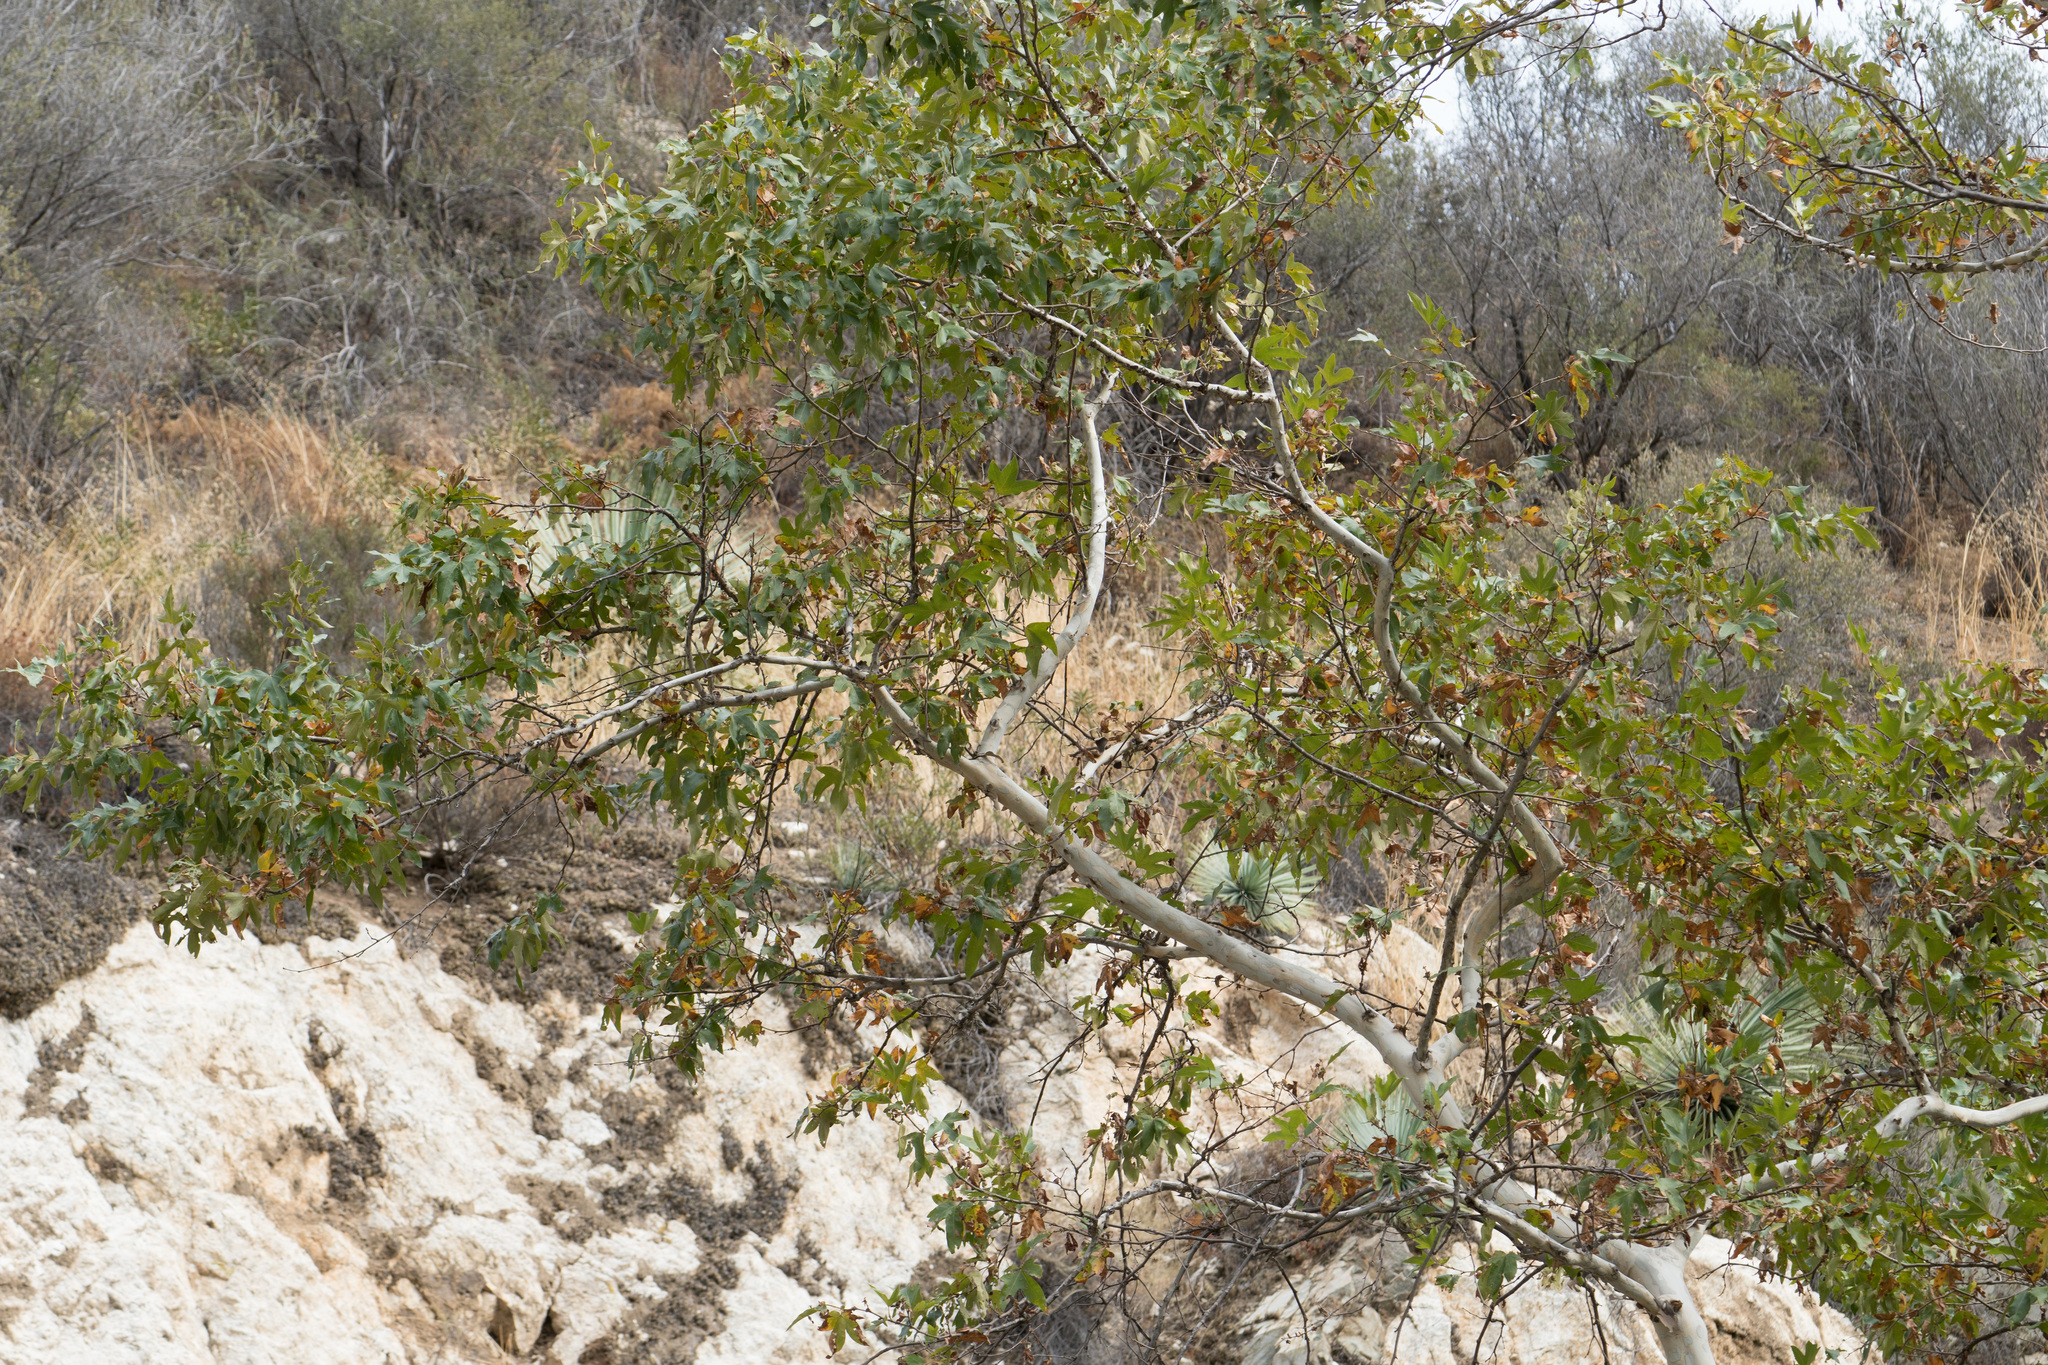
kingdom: Plantae
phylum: Tracheophyta
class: Magnoliopsida
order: Proteales
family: Platanaceae
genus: Platanus
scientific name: Platanus racemosa
